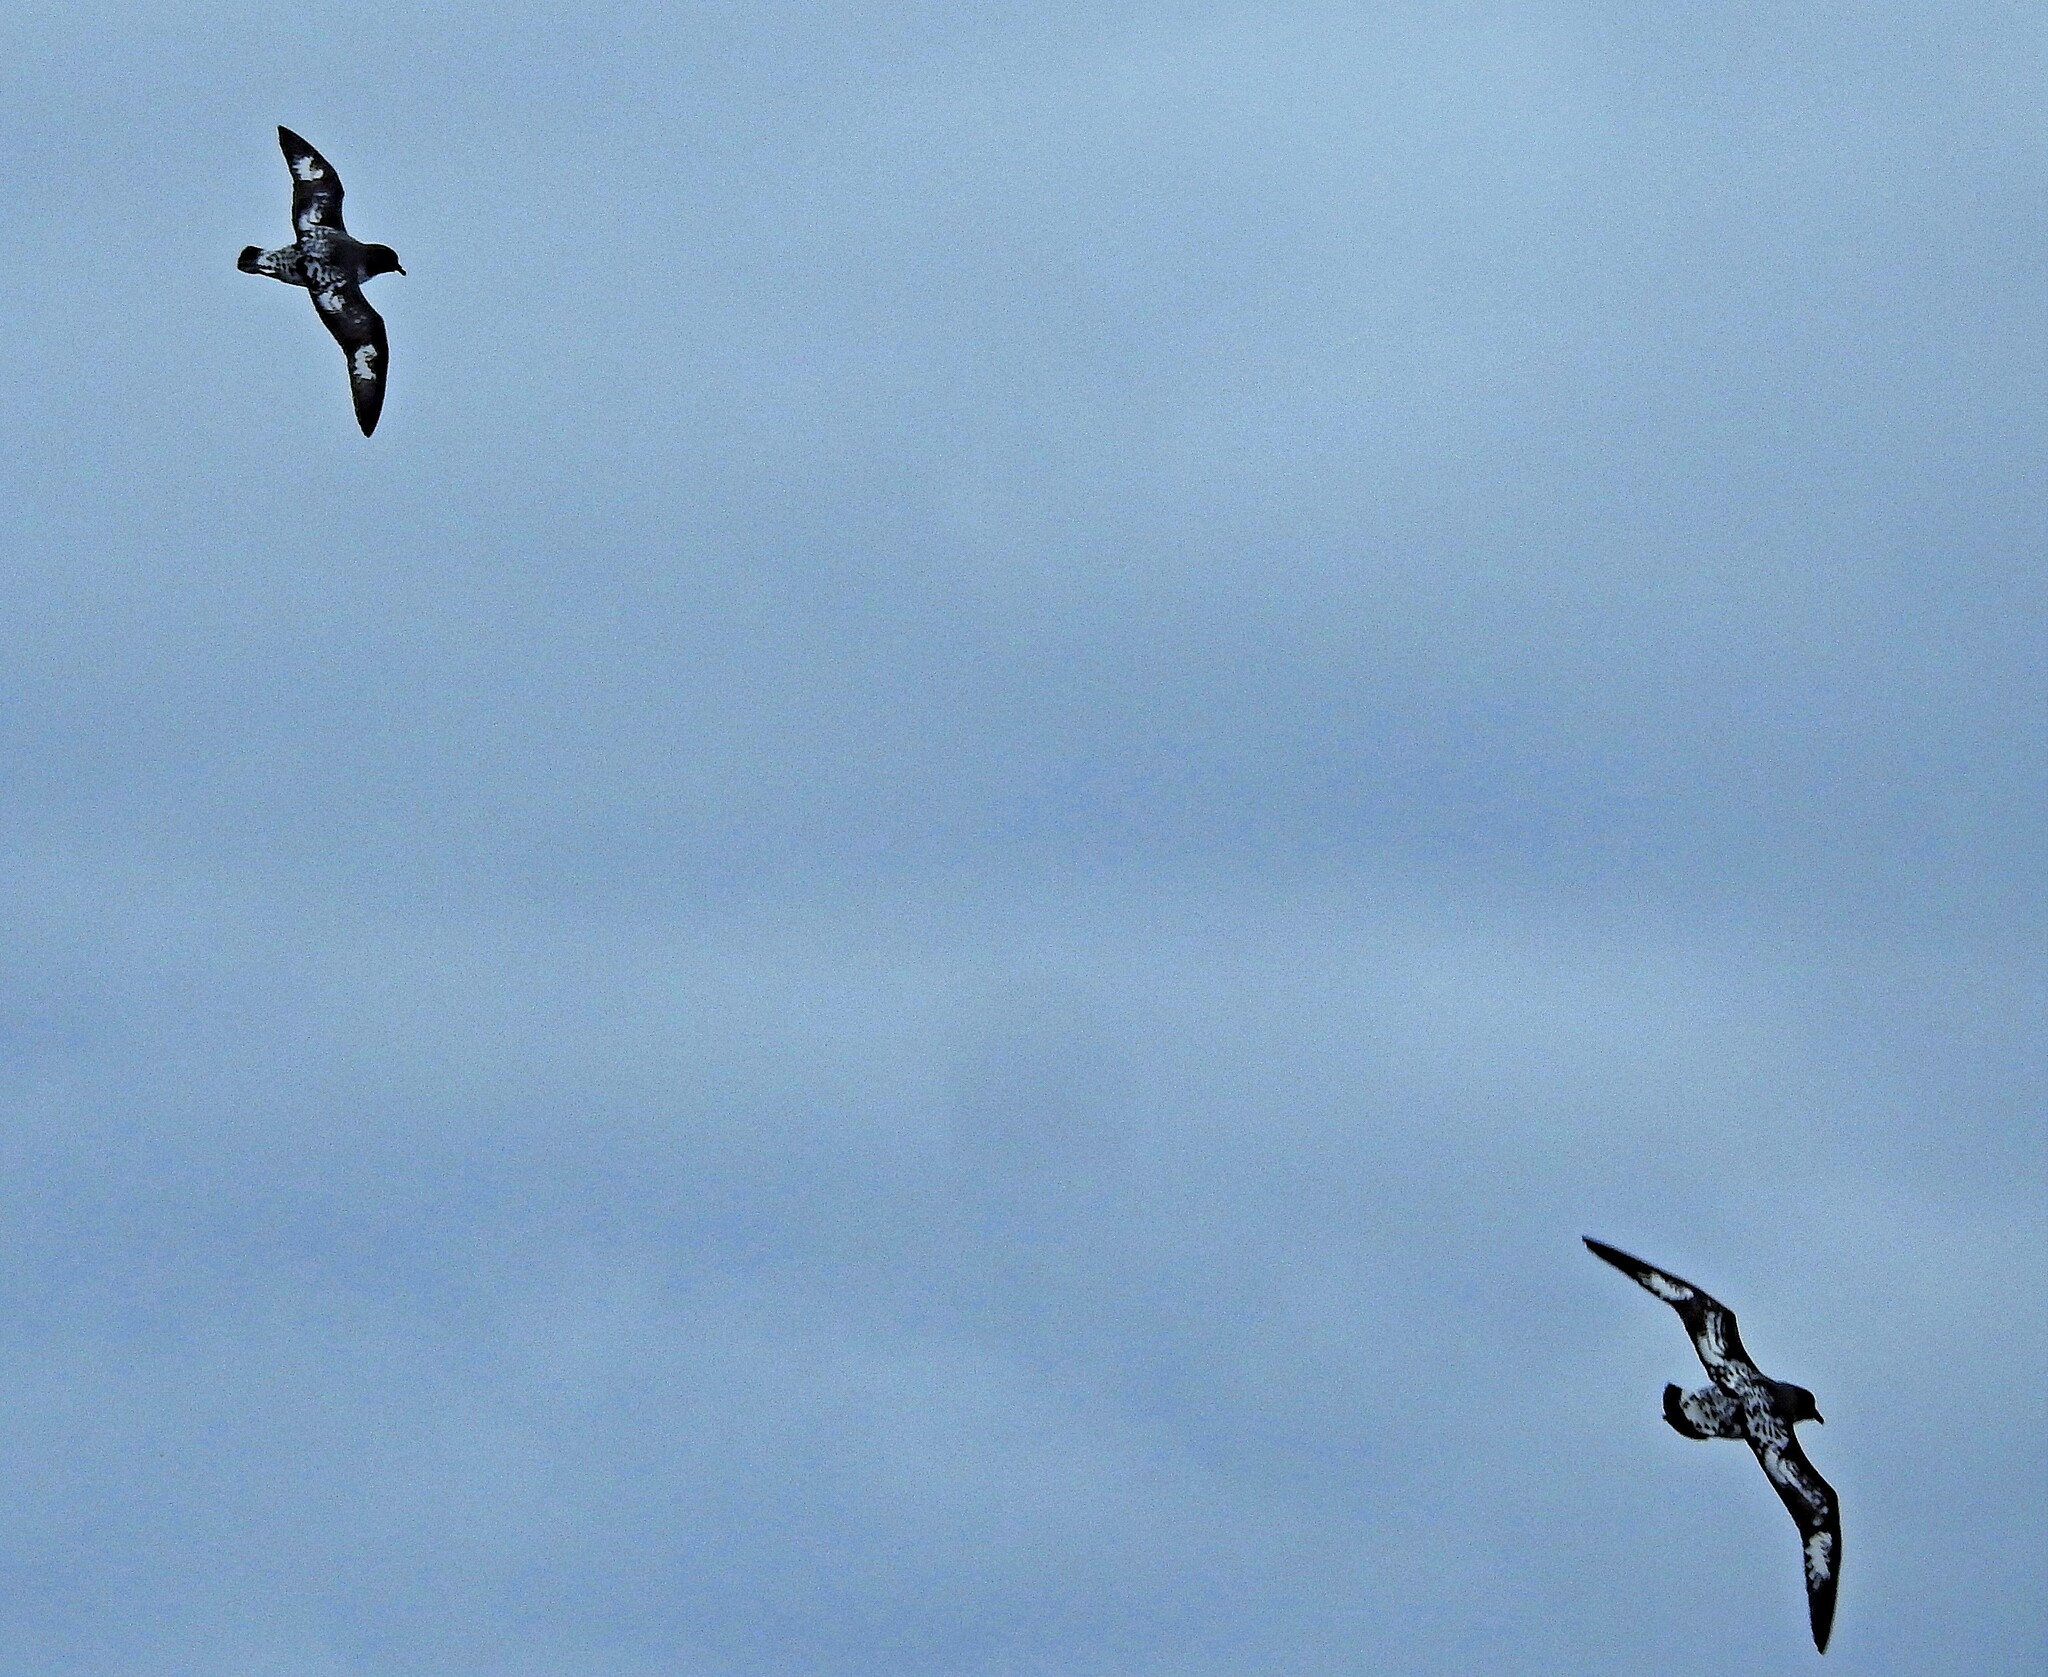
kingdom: Animalia
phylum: Chordata
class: Aves
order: Procellariiformes
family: Procellariidae
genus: Daption
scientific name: Daption capense
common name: Cape petrel
